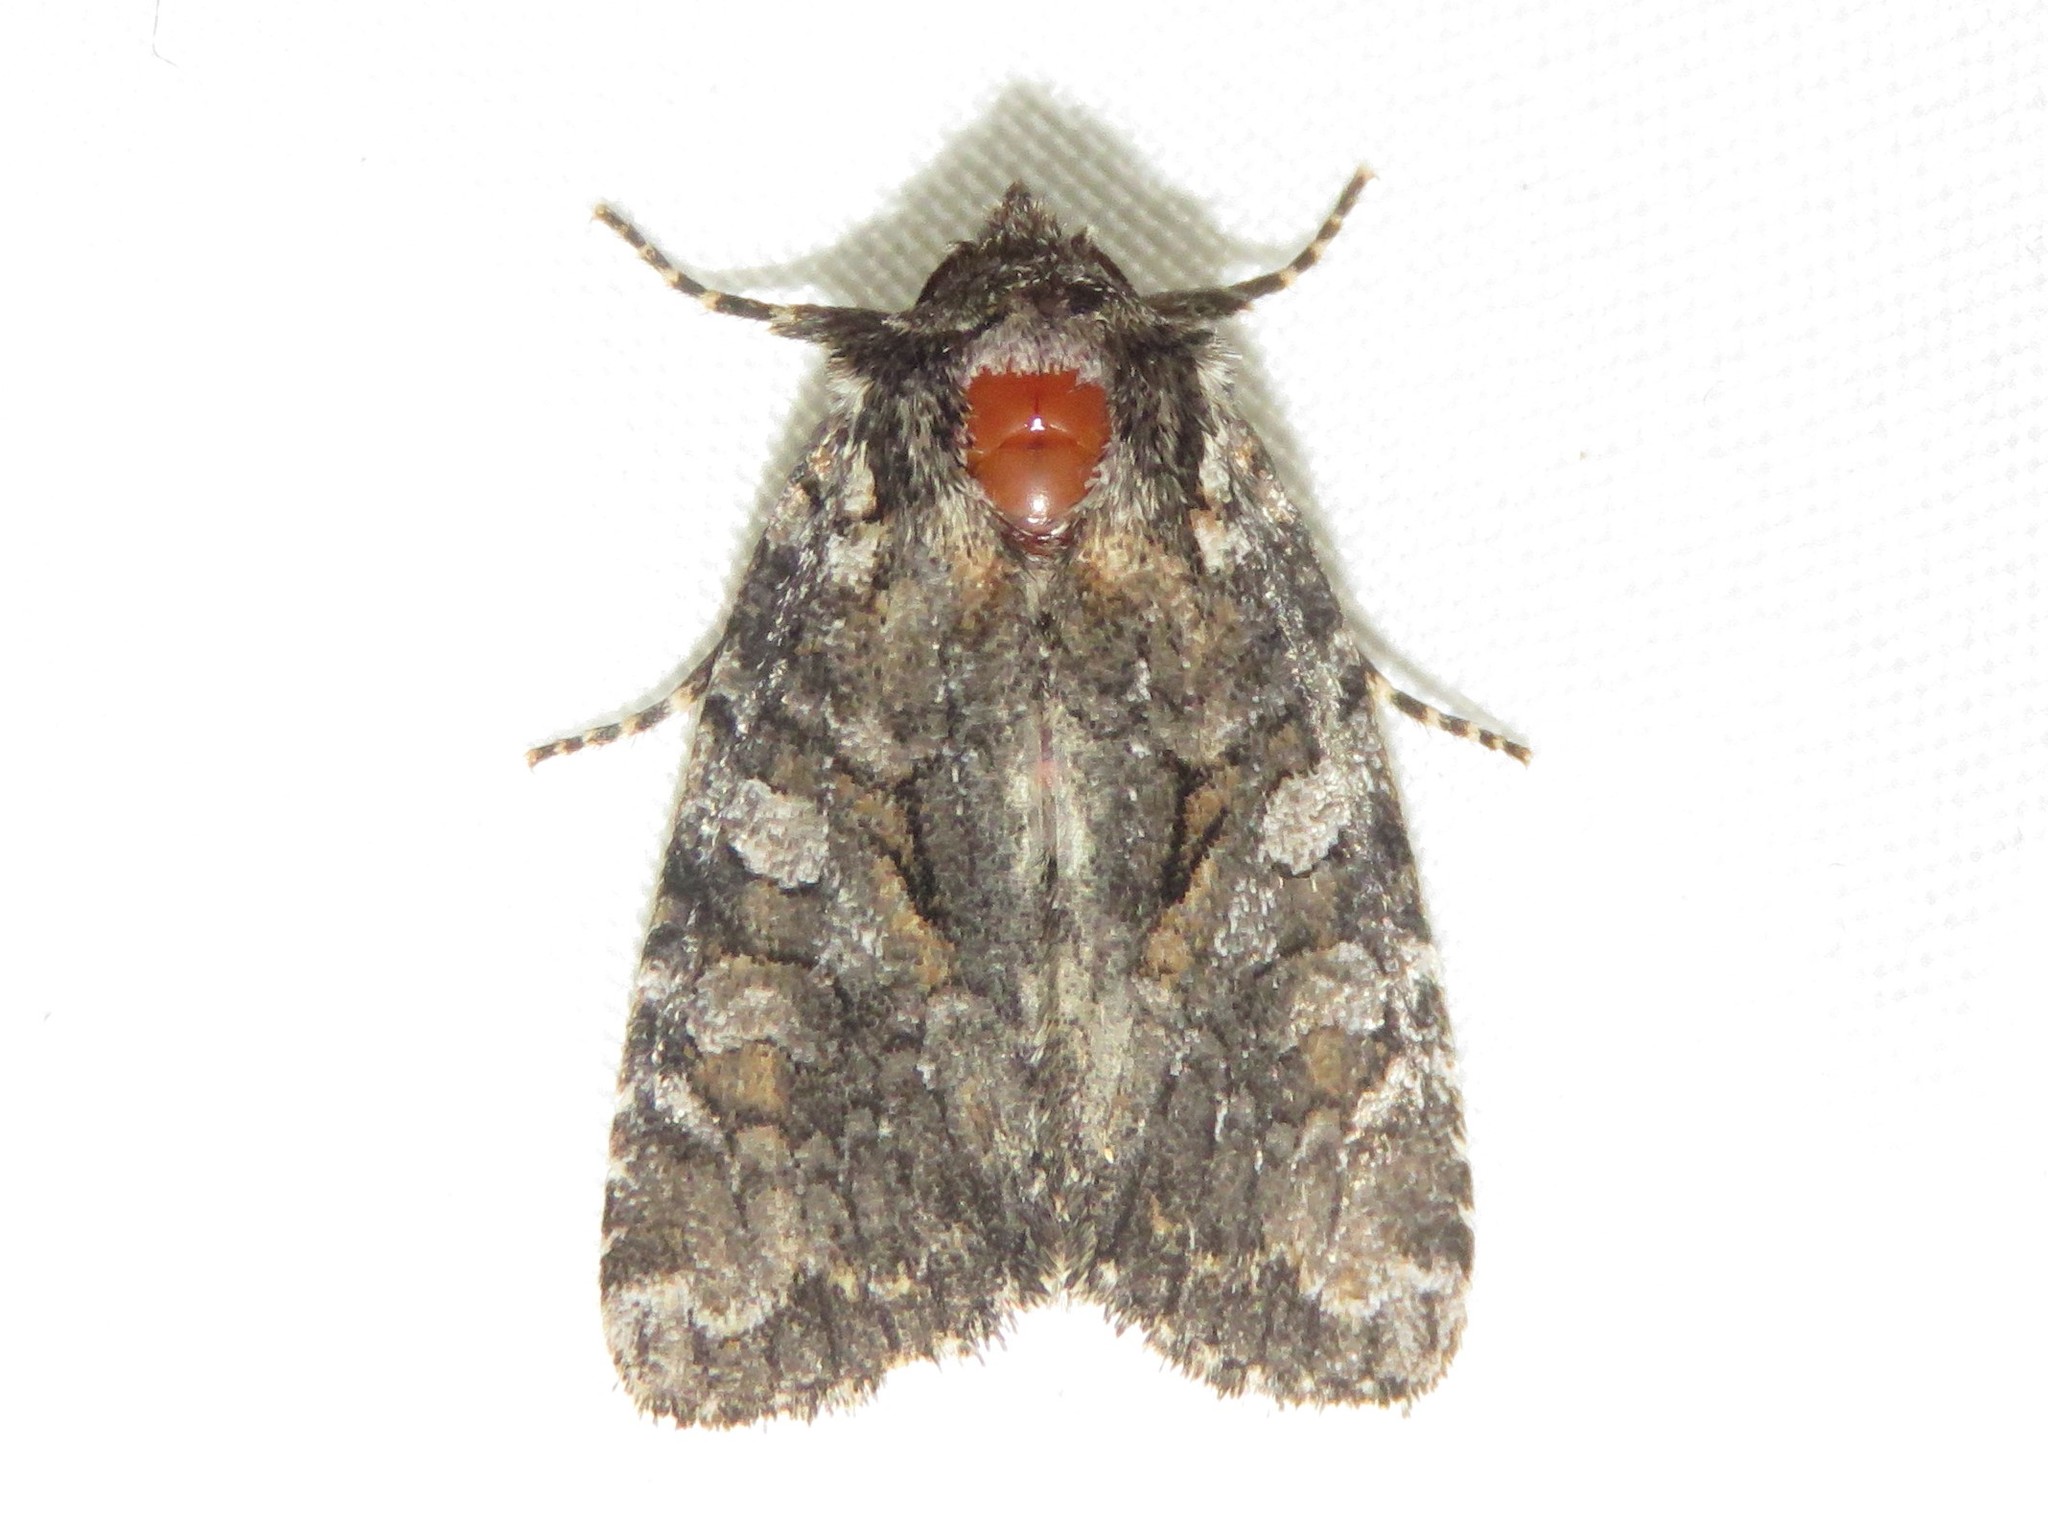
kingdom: Animalia
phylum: Arthropoda
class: Insecta
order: Lepidoptera
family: Noctuidae
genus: Orthodes
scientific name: Orthodes detracta
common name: Disparaged arches moth
